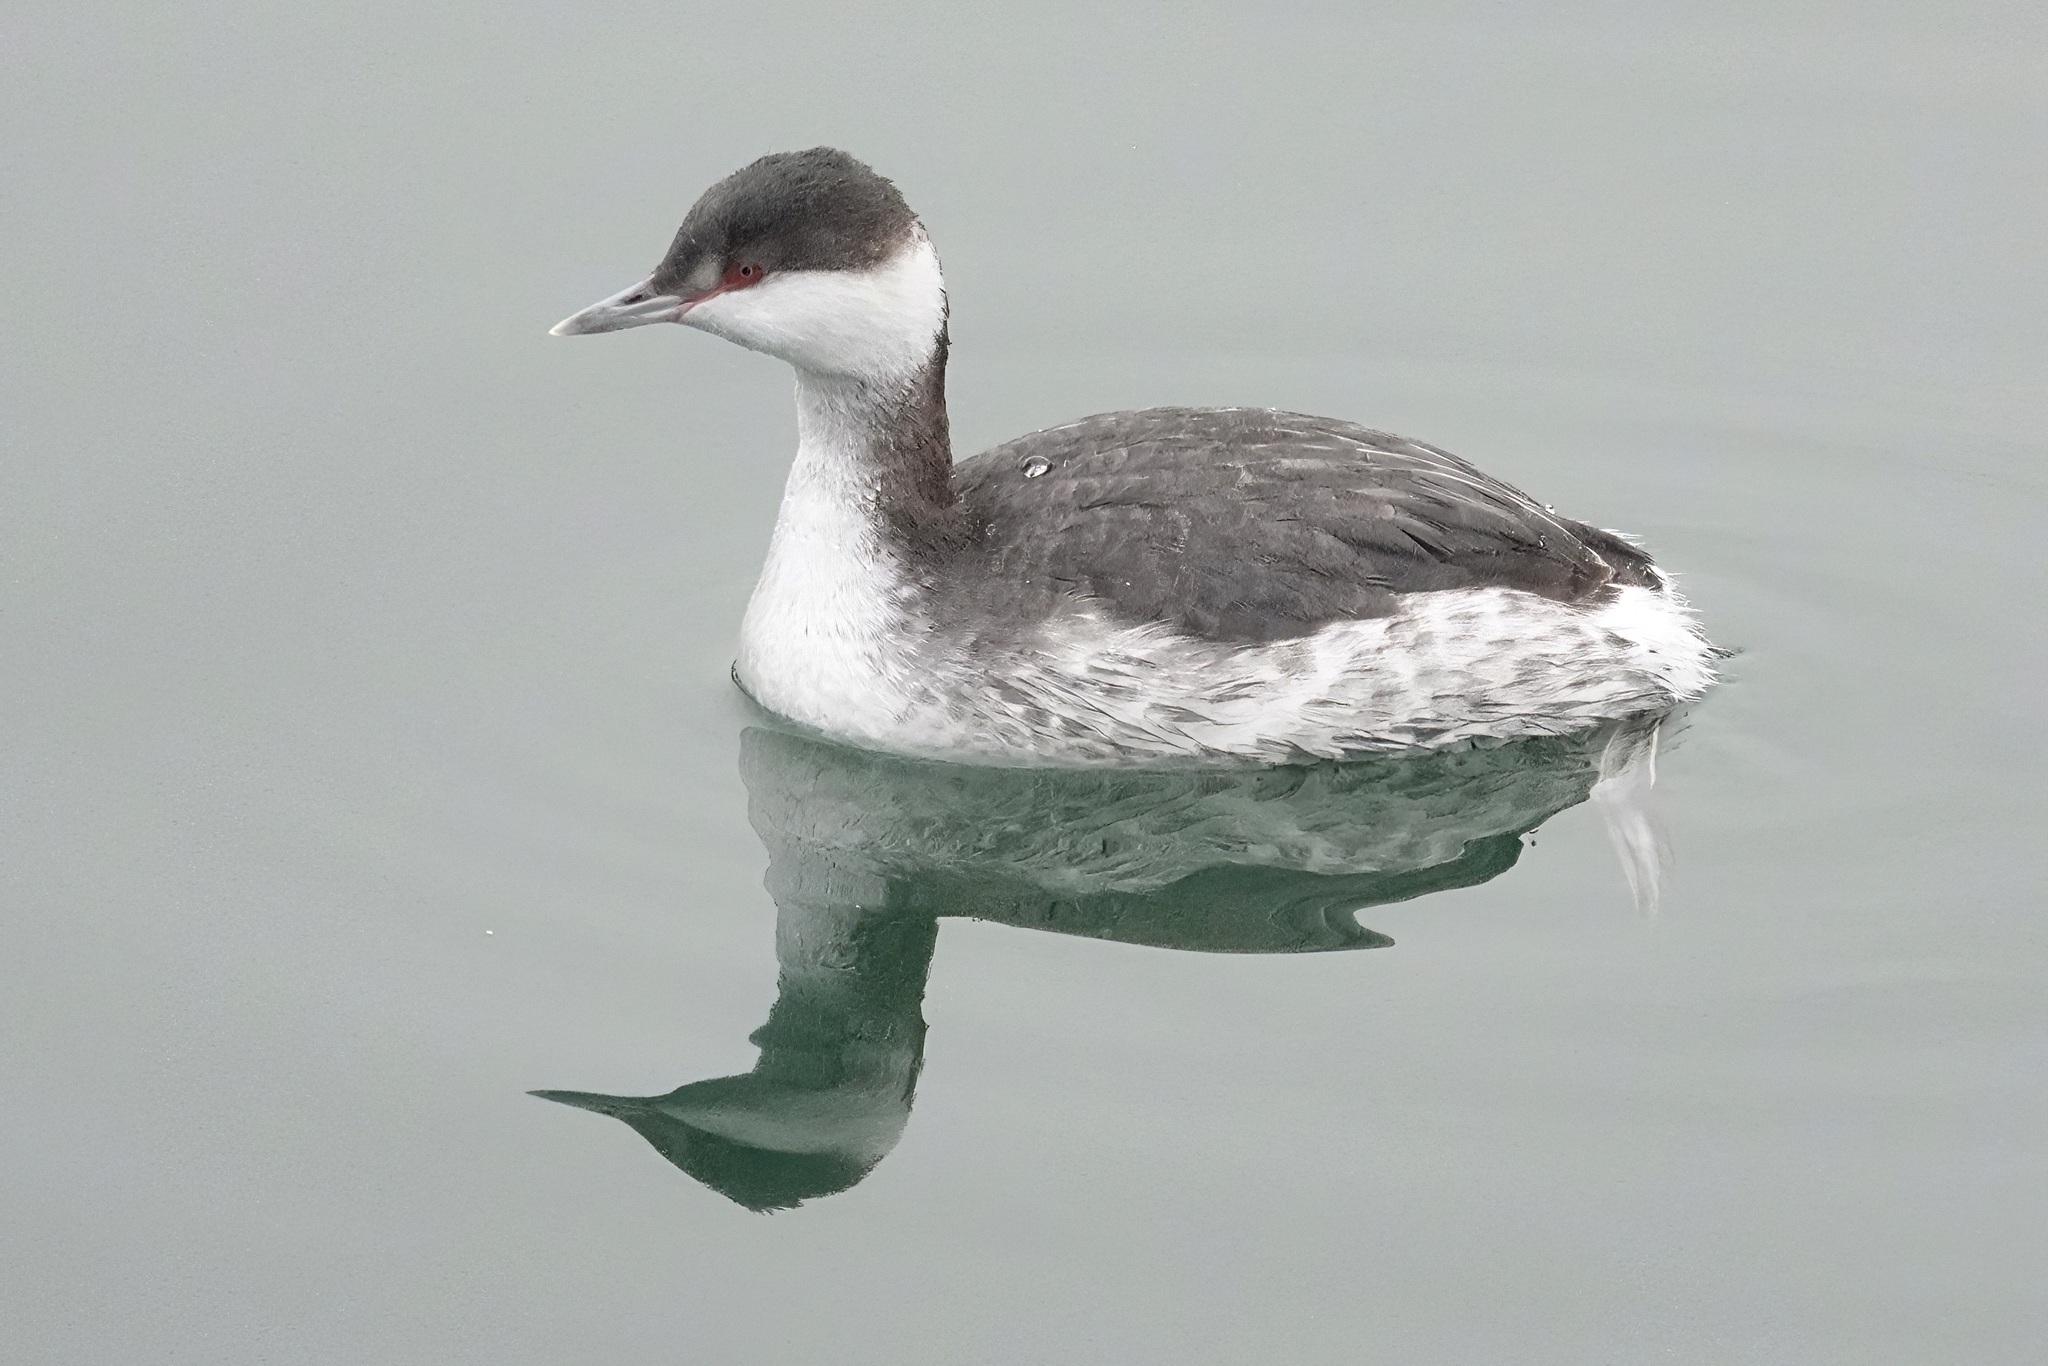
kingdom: Animalia
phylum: Chordata
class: Aves
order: Podicipediformes
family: Podicipedidae
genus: Podiceps
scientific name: Podiceps auritus
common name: Horned grebe
